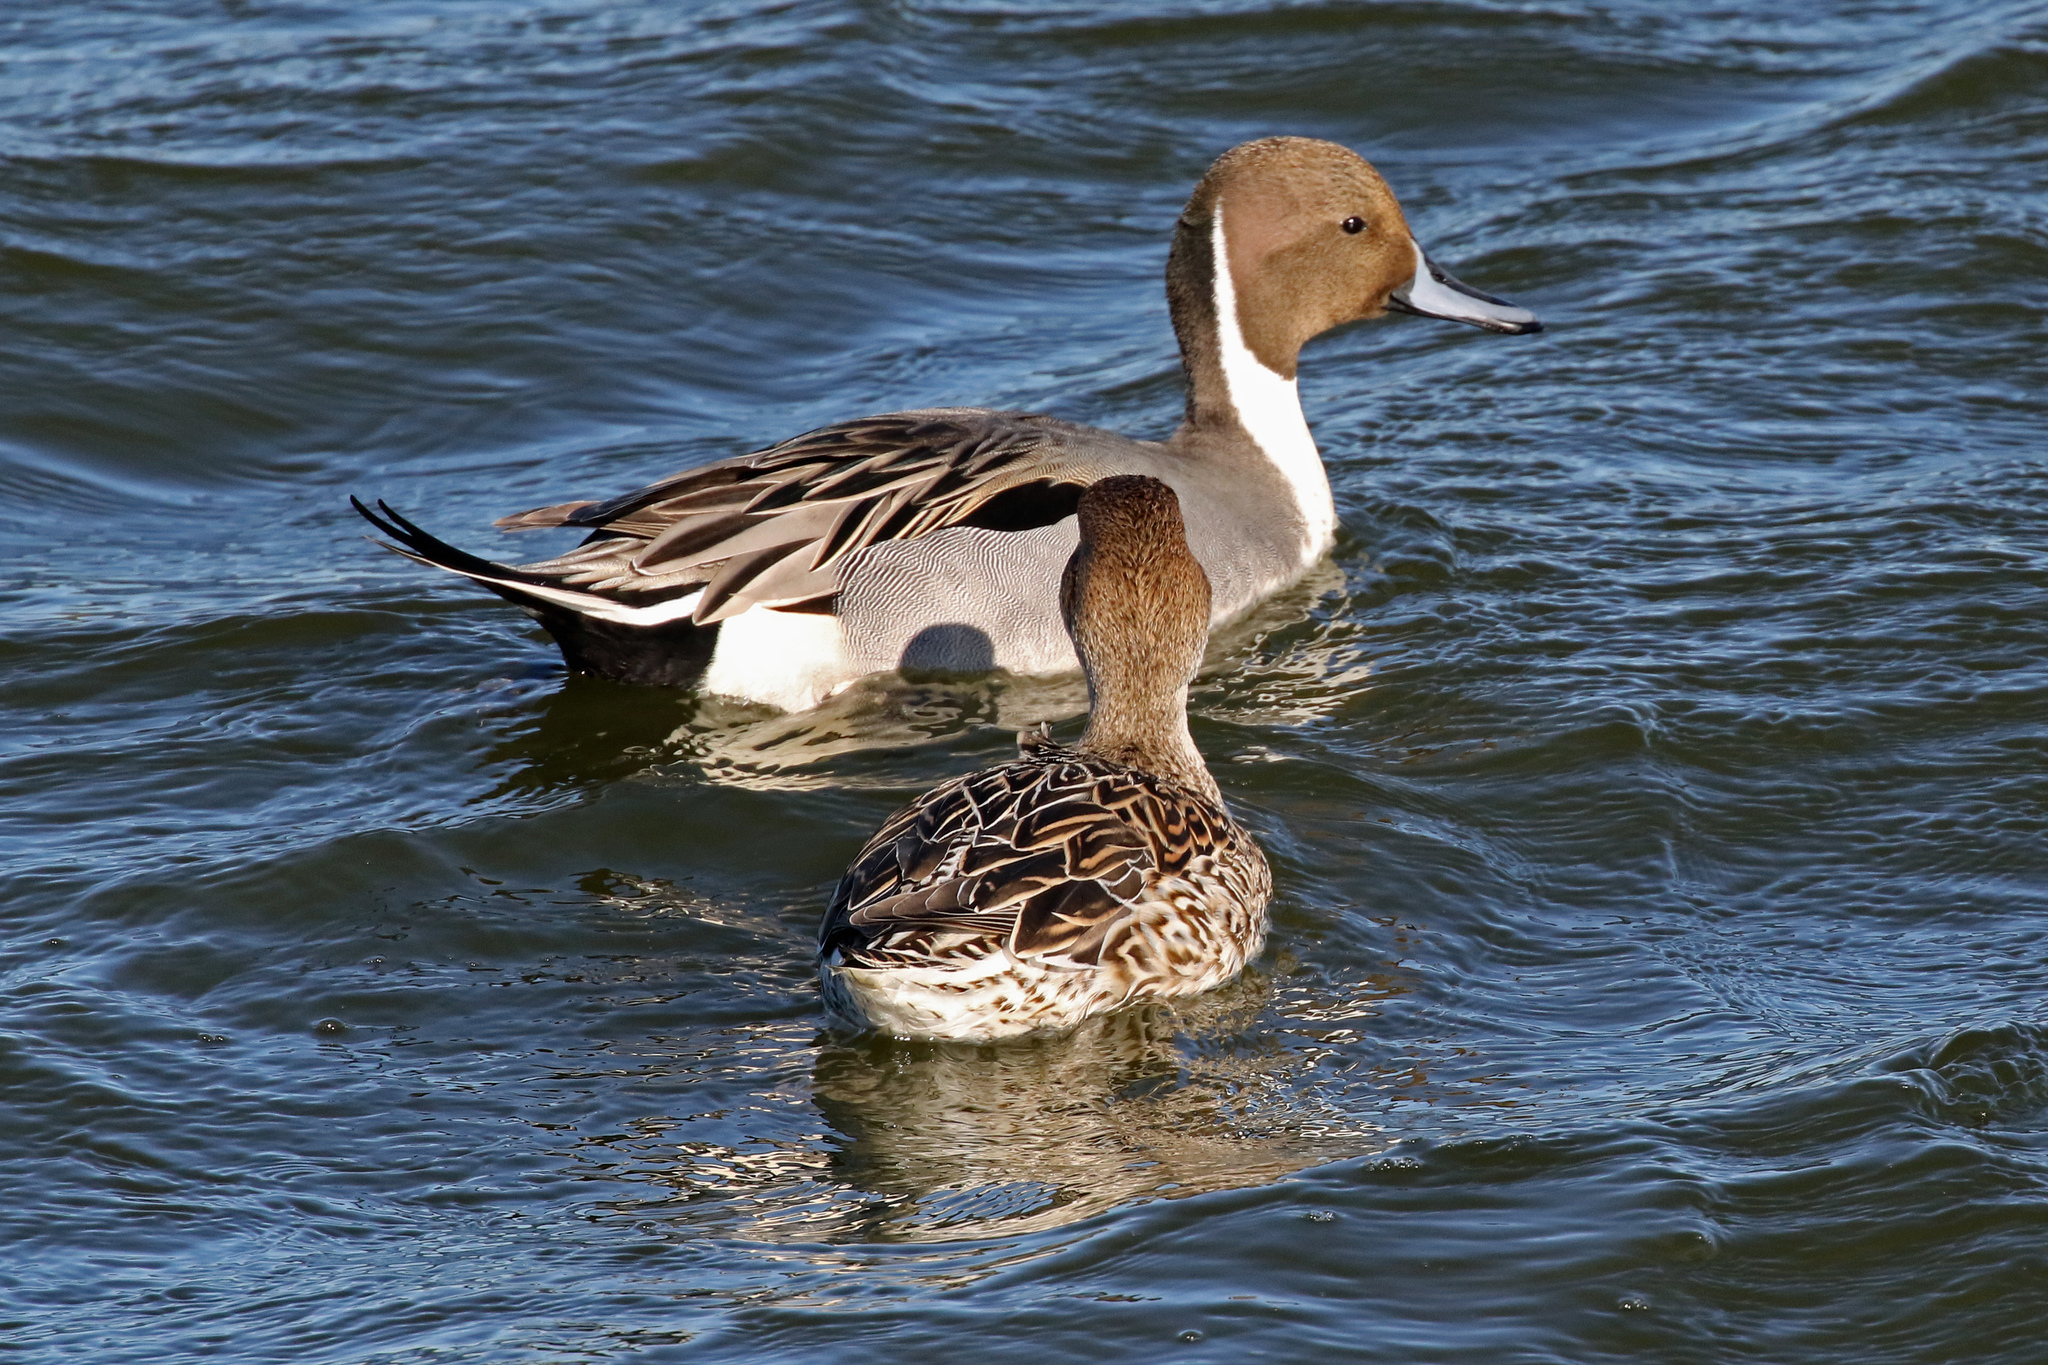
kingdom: Animalia
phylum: Chordata
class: Aves
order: Anseriformes
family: Anatidae
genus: Anas
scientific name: Anas acuta
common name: Northern pintail
